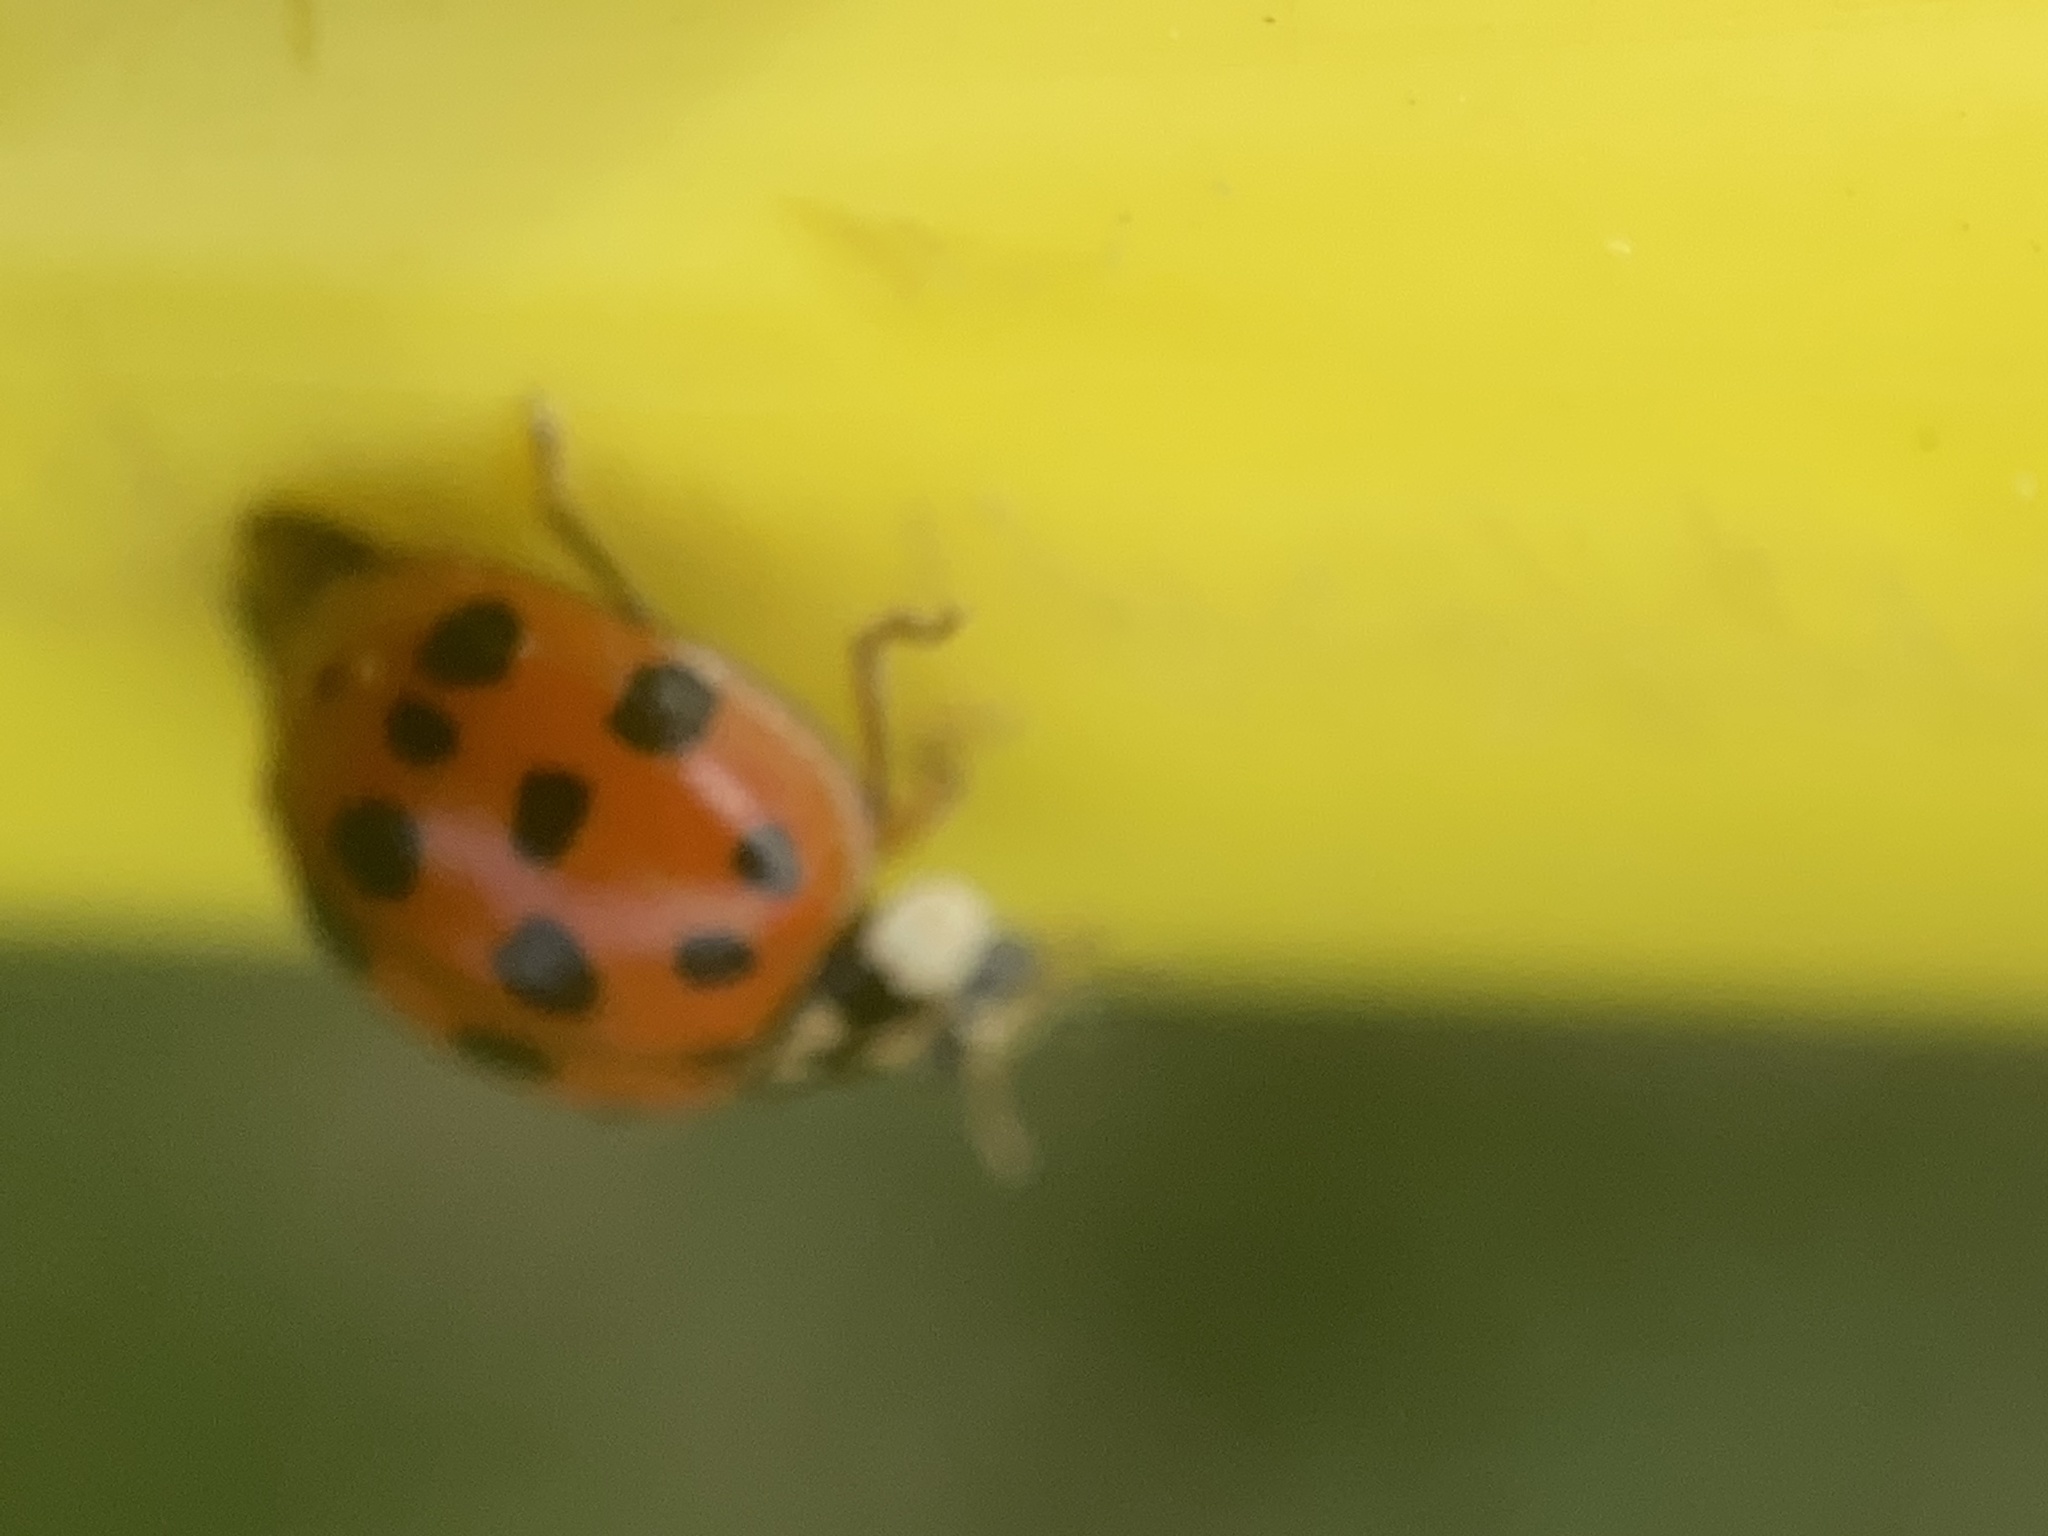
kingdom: Animalia
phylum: Arthropoda
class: Insecta
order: Coleoptera
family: Coccinellidae
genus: Harmonia
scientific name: Harmonia axyridis
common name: Harlequin ladybird
